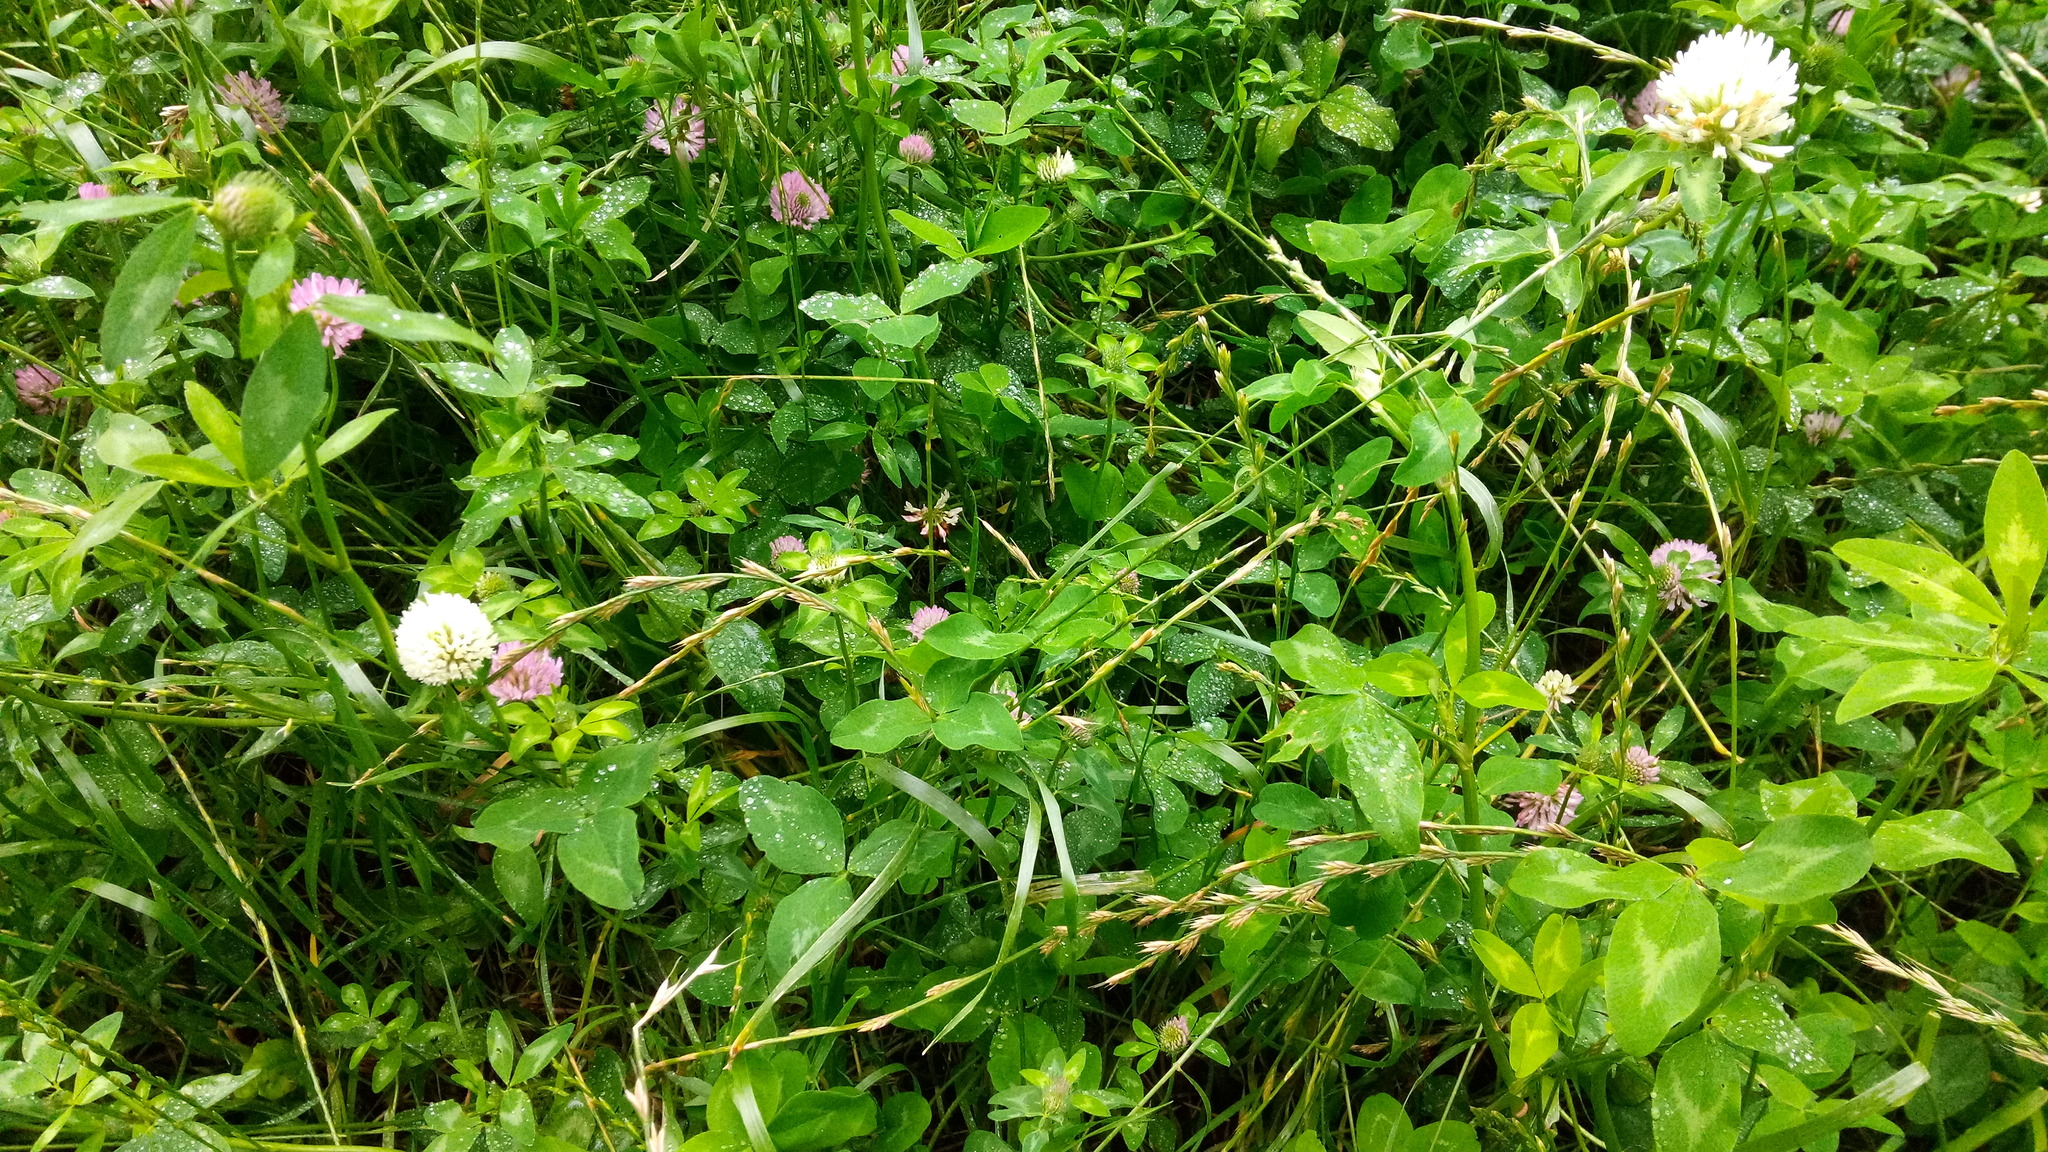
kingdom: Plantae
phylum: Tracheophyta
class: Magnoliopsida
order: Fabales
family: Fabaceae
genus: Trifolium
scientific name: Trifolium pratense
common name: Red clover
